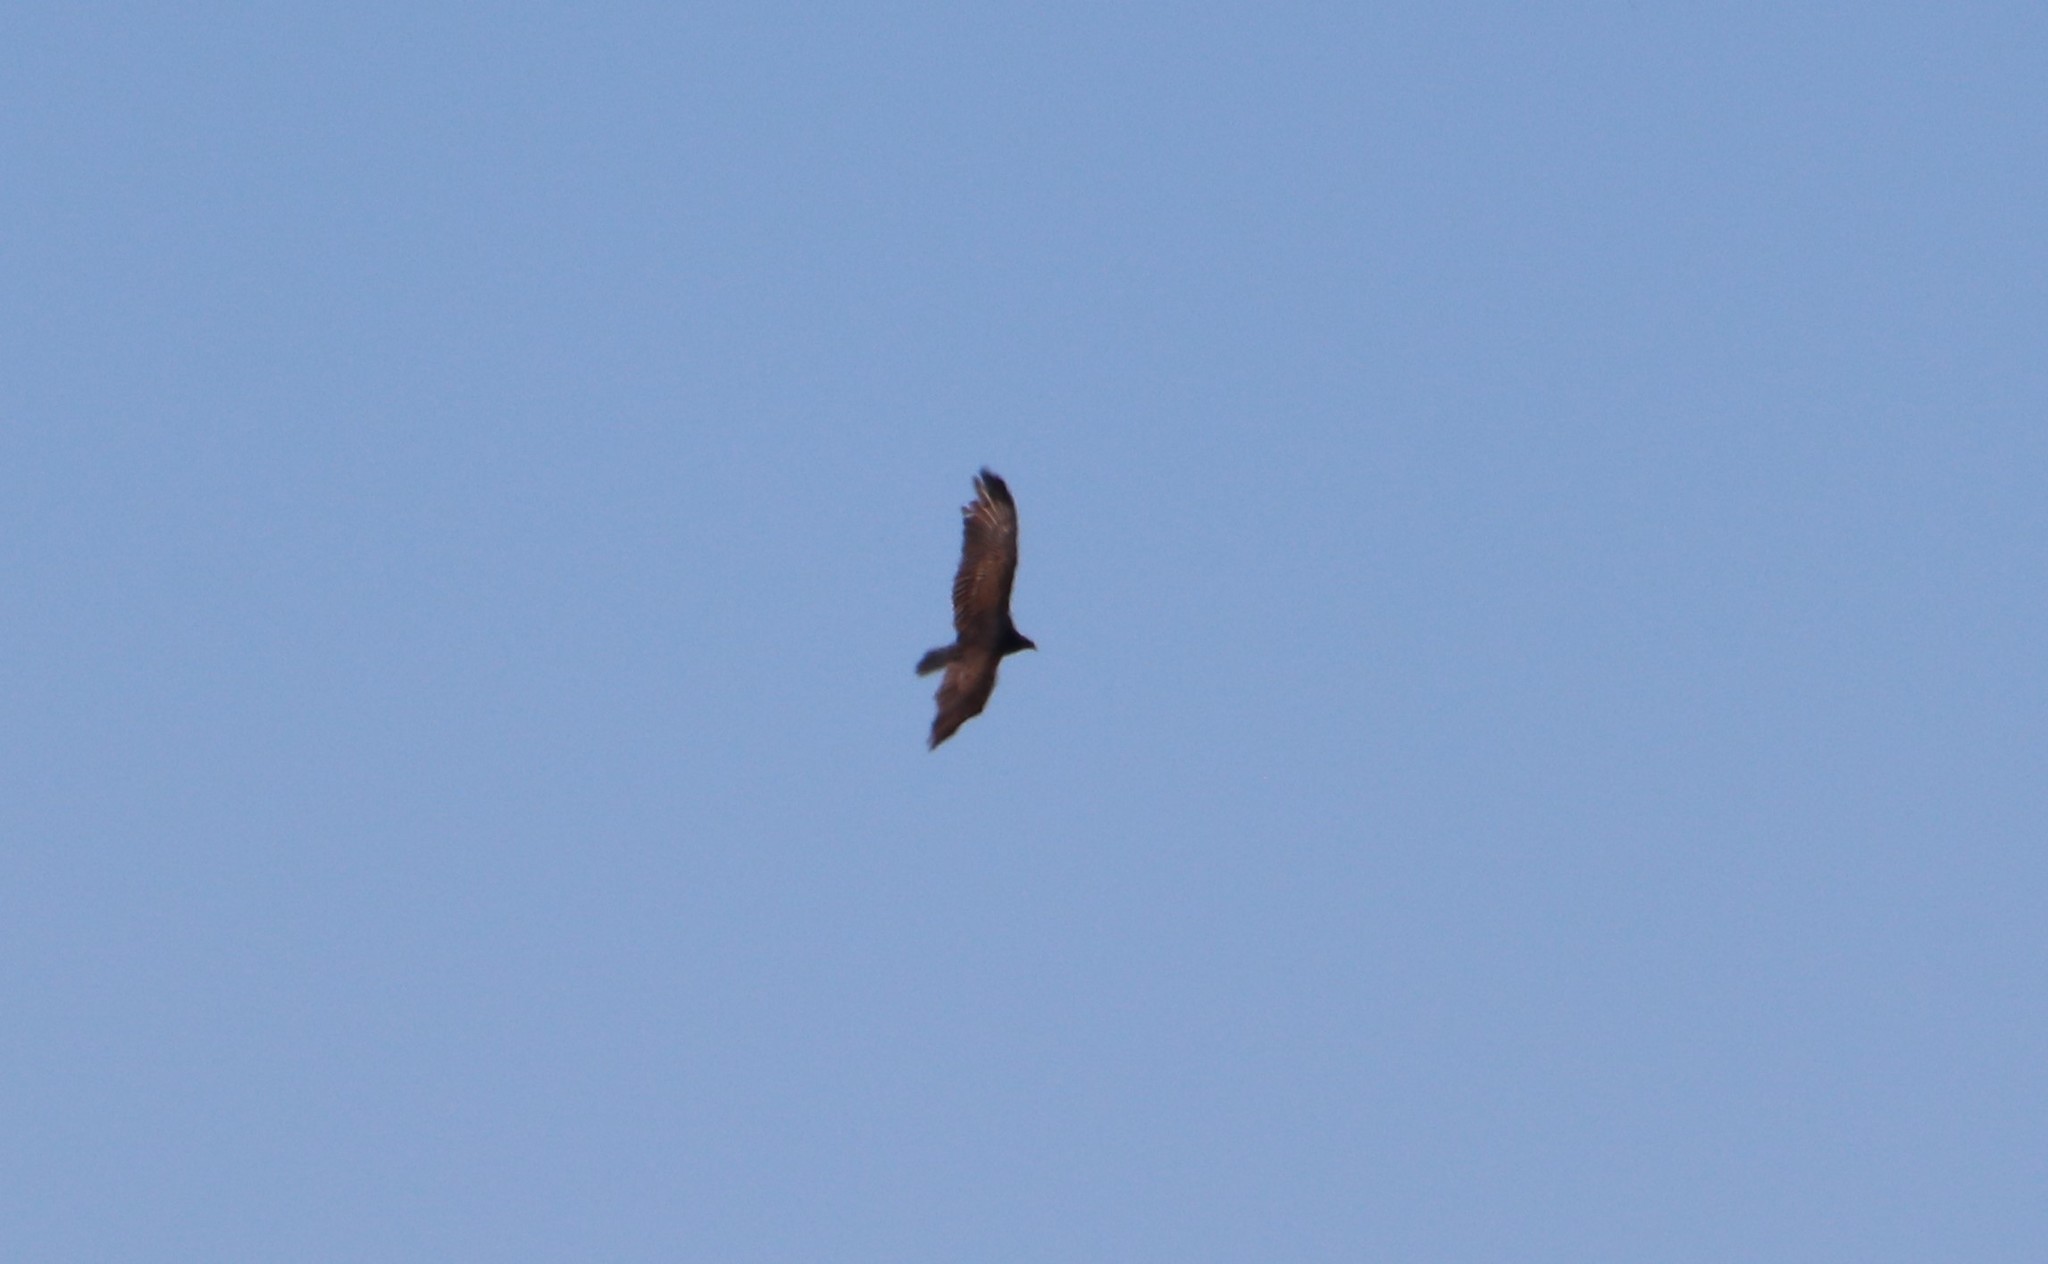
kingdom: Animalia
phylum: Chordata
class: Aves
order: Accipitriformes
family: Cathartidae
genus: Cathartes
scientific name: Cathartes aura
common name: Turkey vulture
